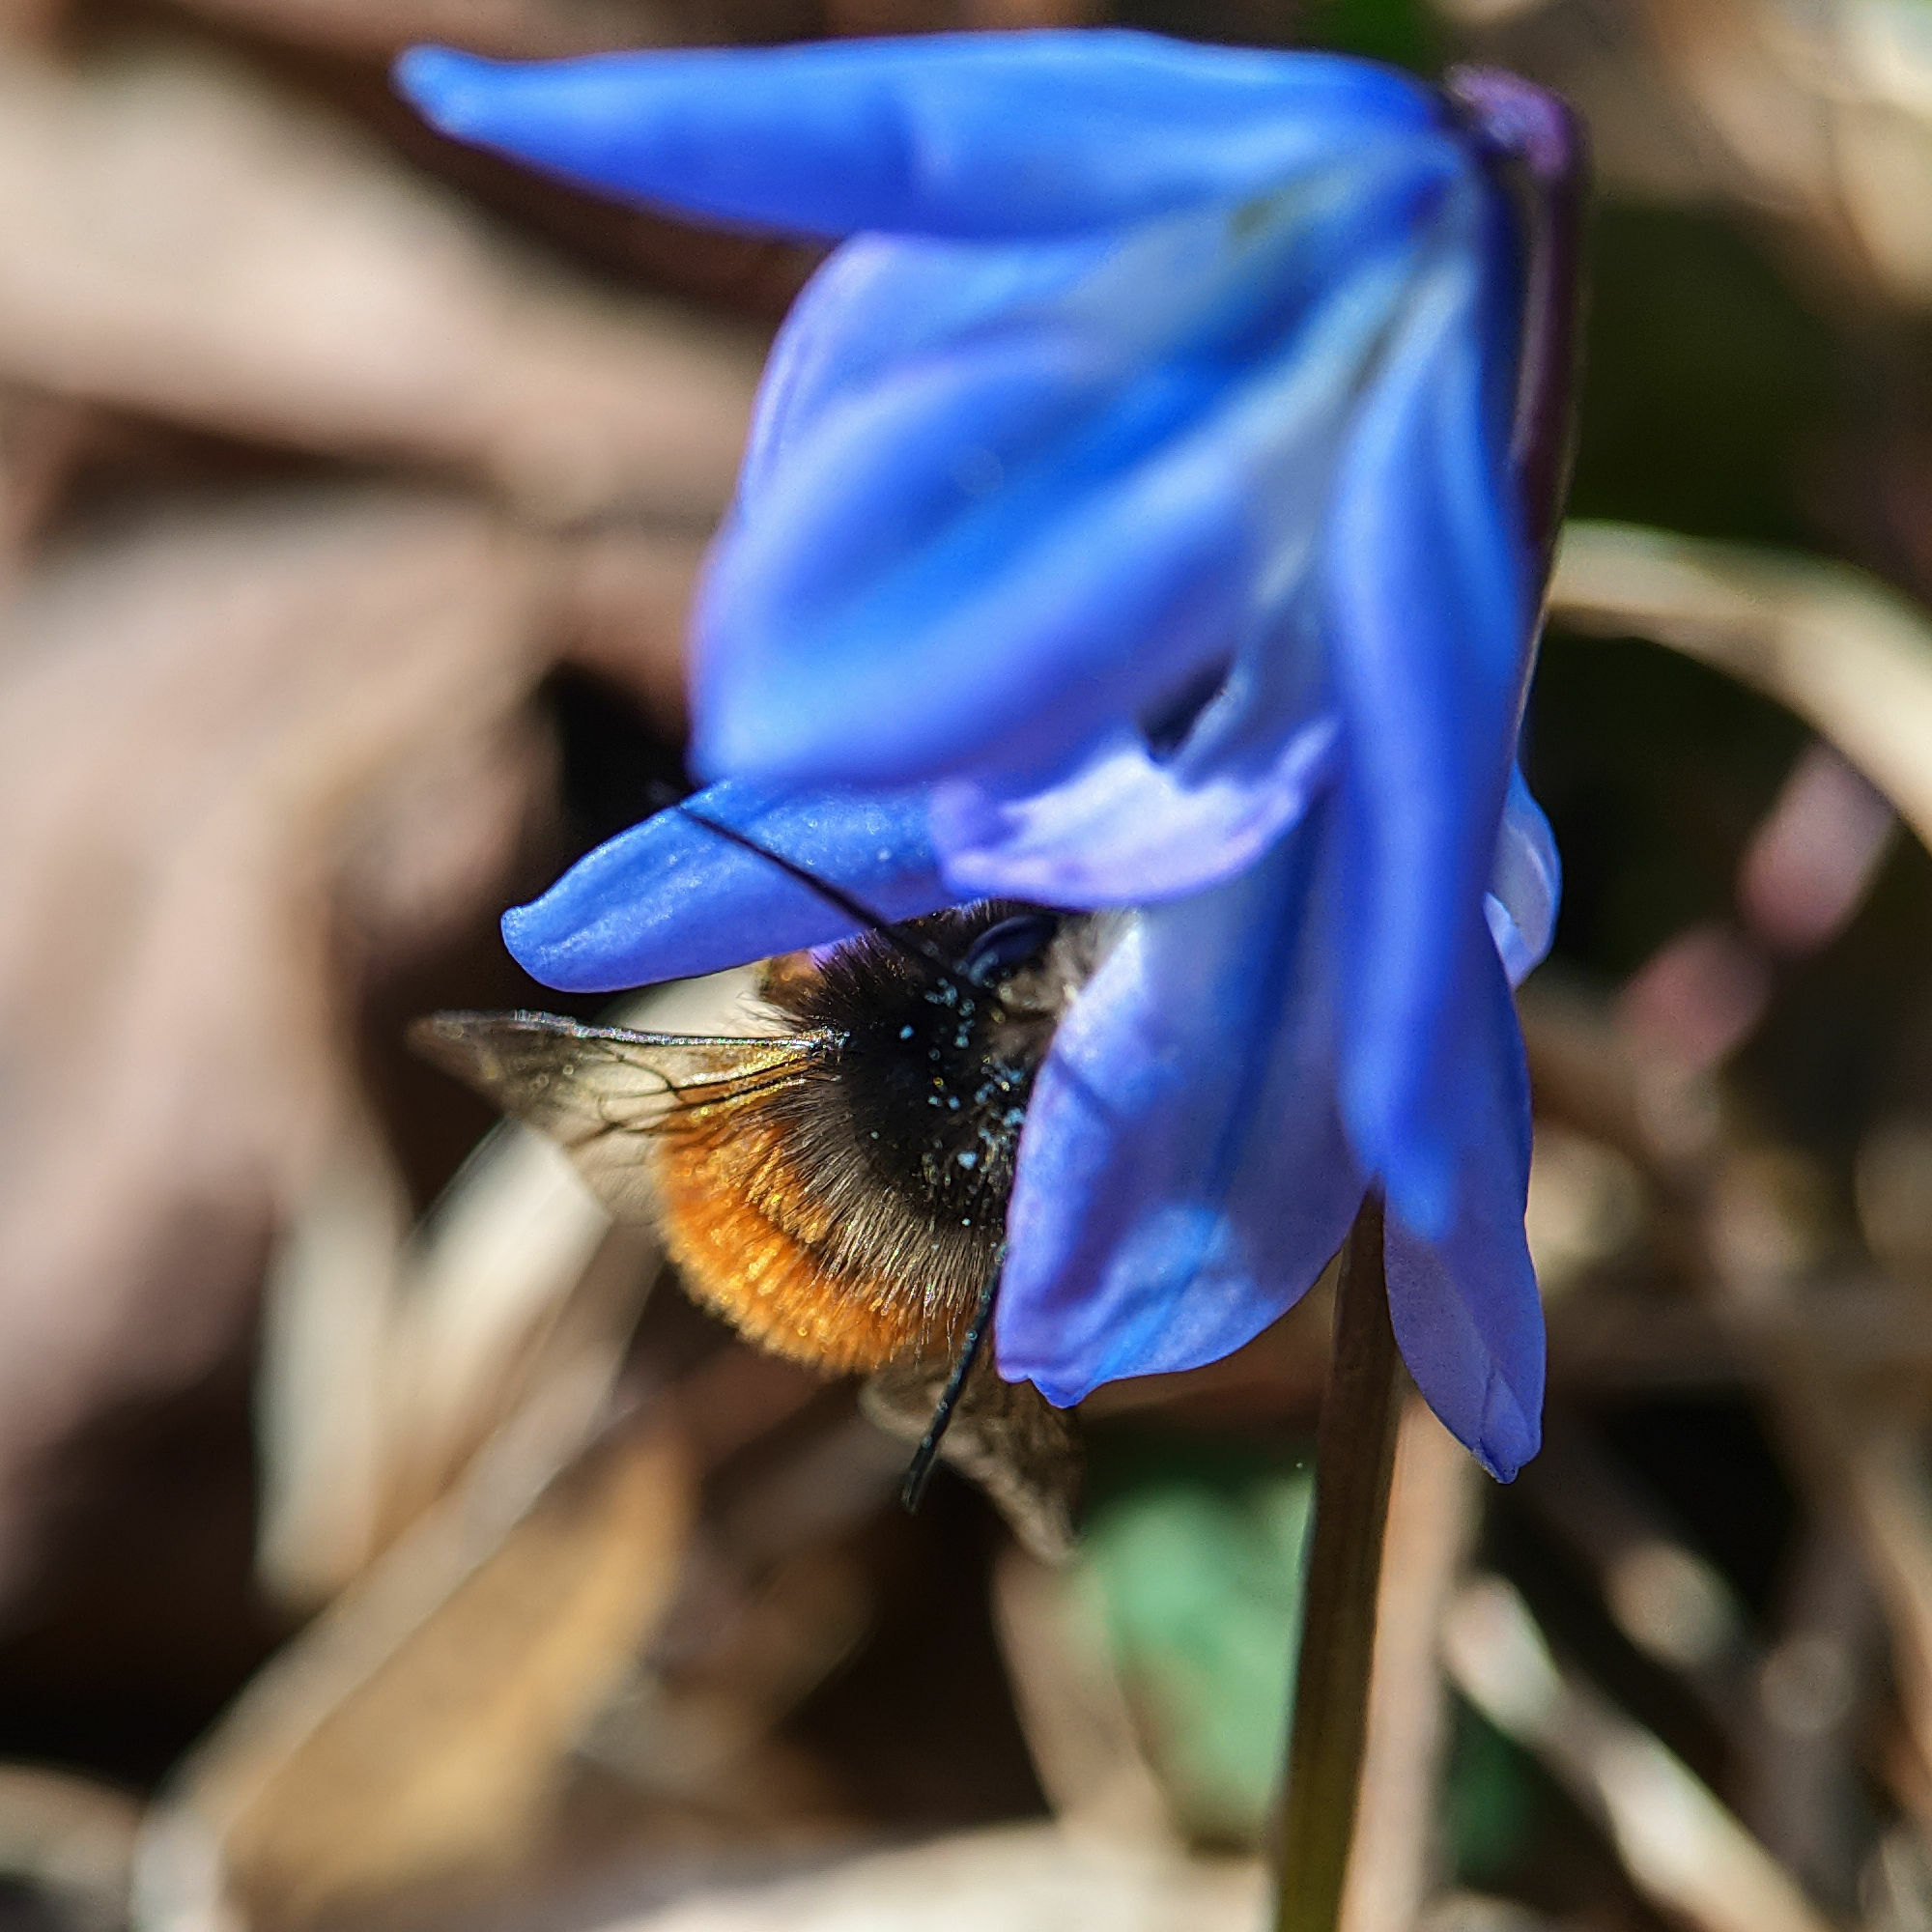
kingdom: Animalia
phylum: Arthropoda
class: Insecta
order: Hymenoptera
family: Megachilidae
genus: Osmia
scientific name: Osmia cornuta
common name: Mason bee
